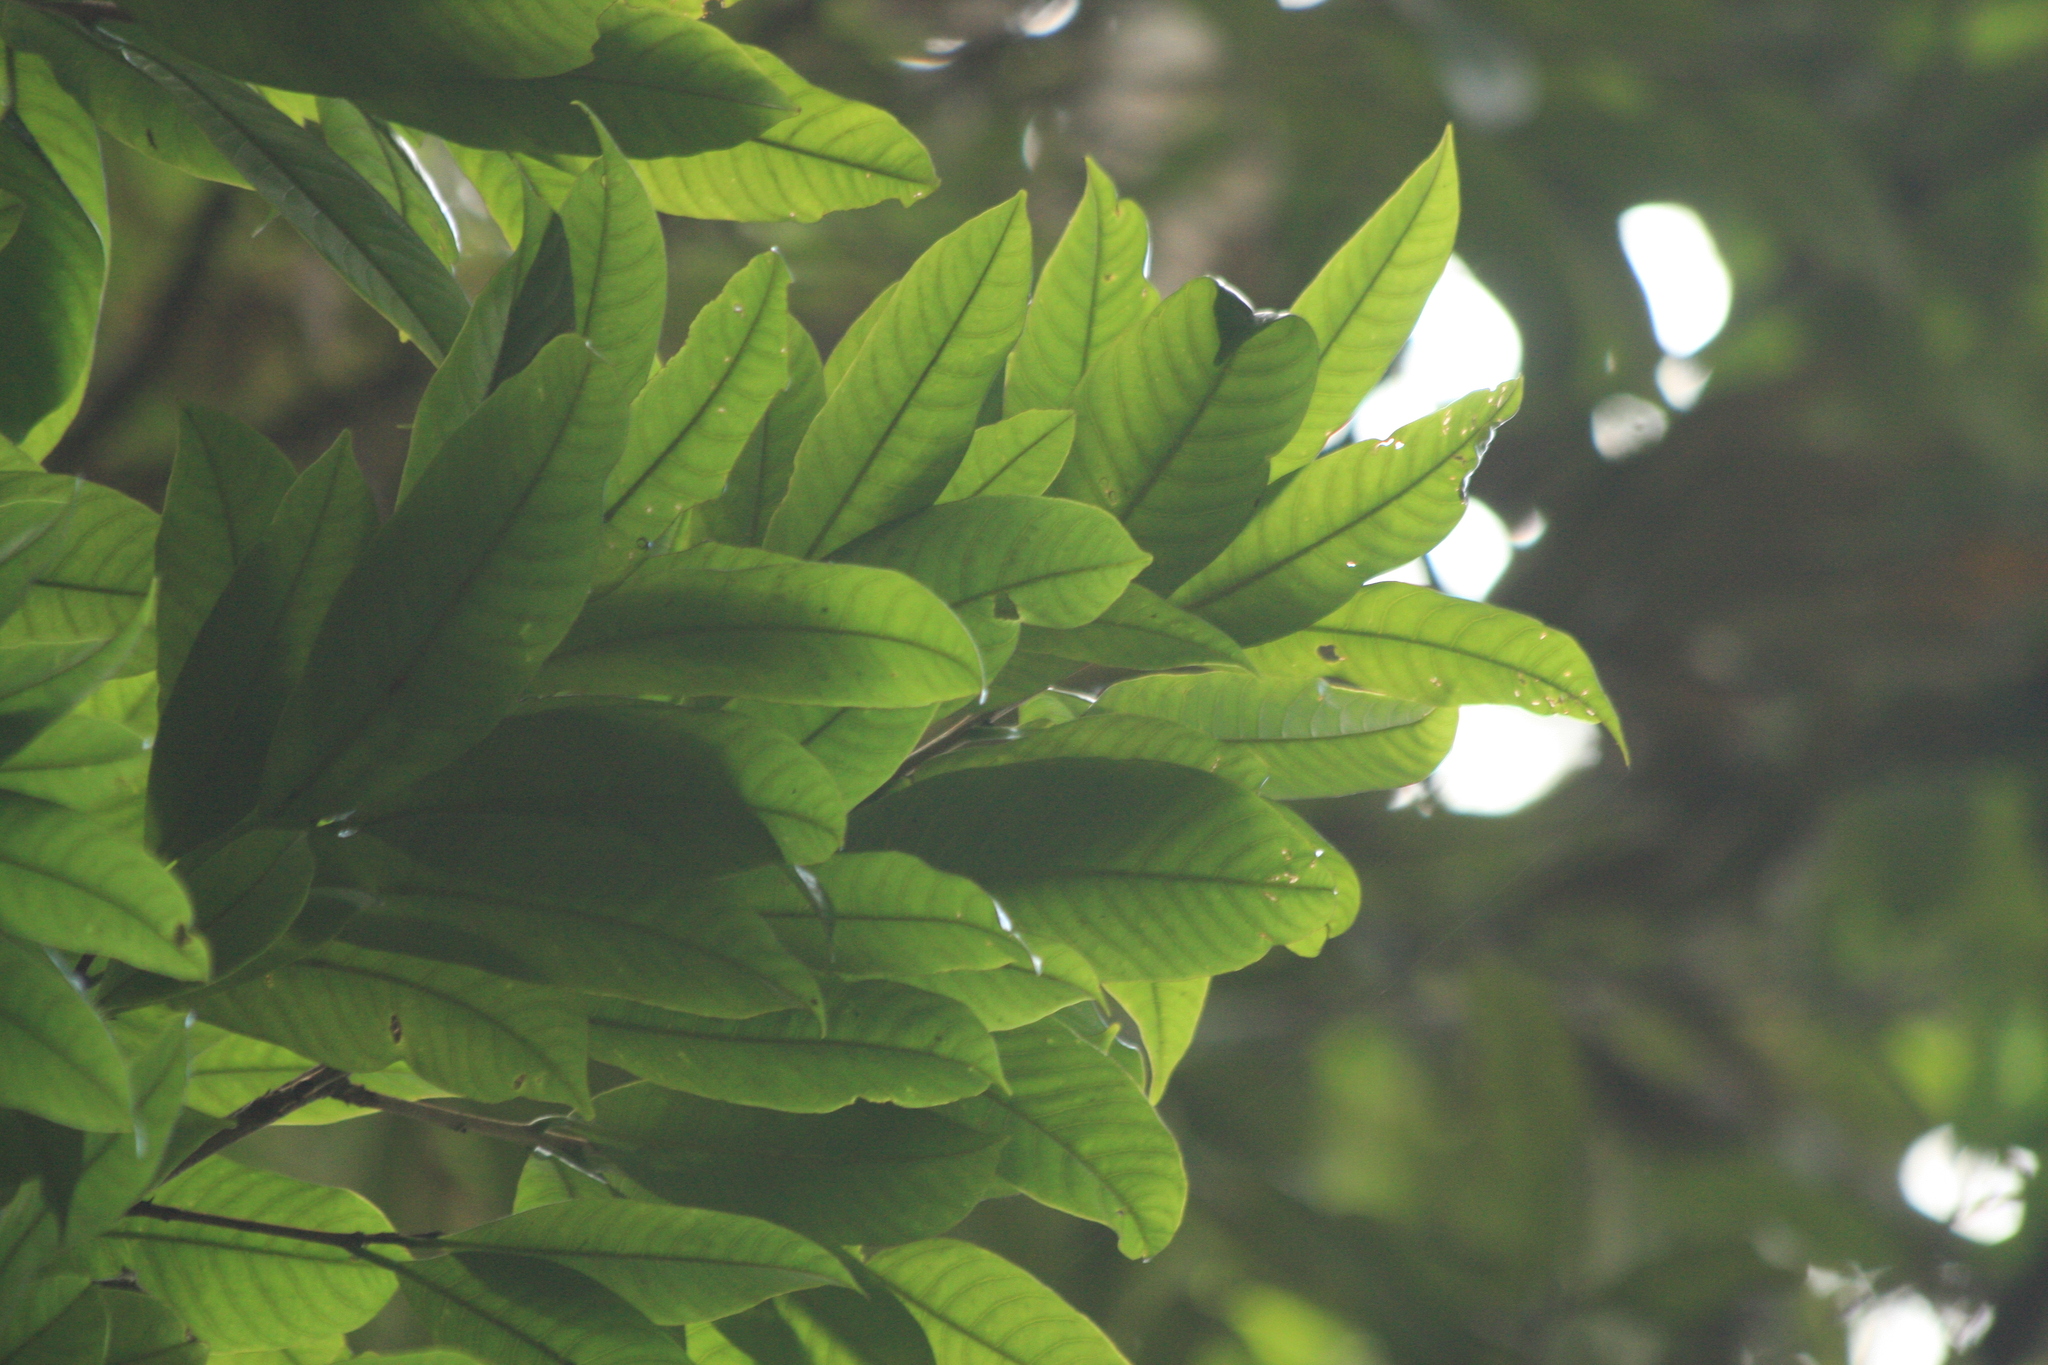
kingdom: Plantae
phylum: Tracheophyta
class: Magnoliopsida
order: Magnoliales
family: Magnoliaceae
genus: Magnolia
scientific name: Magnolia nilagirica
